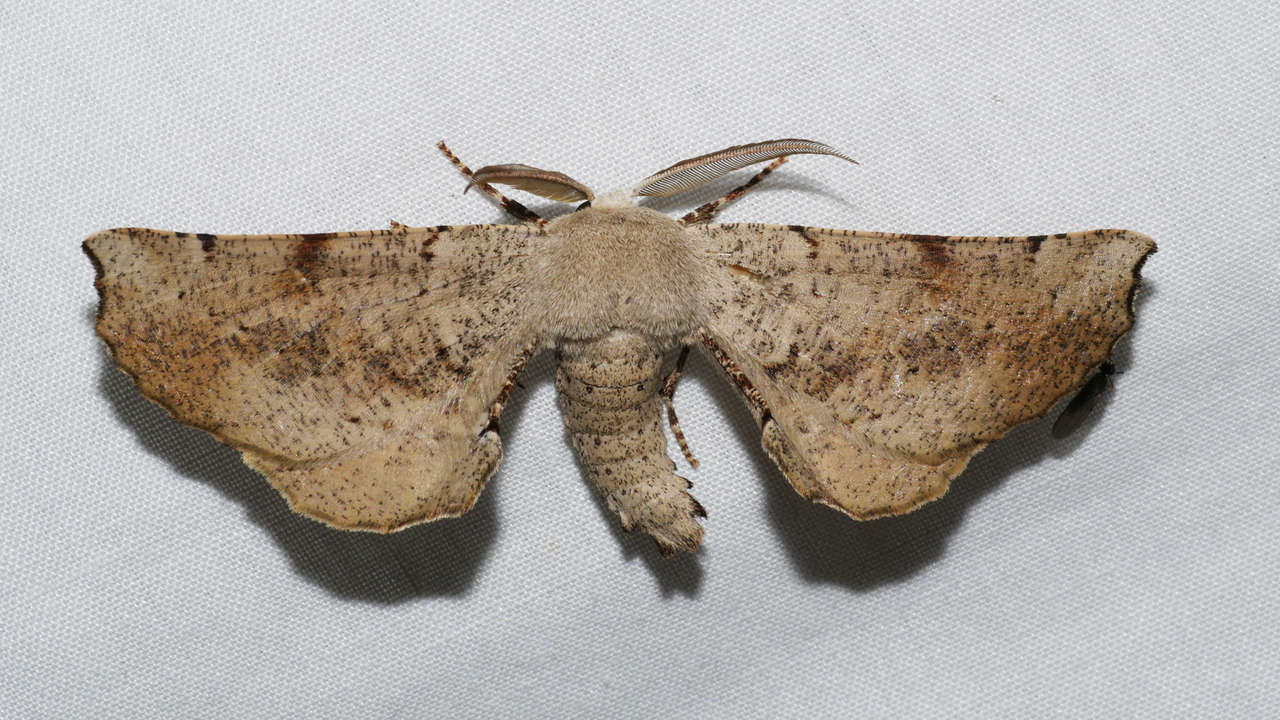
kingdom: Animalia
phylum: Arthropoda
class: Insecta
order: Lepidoptera
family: Geometridae
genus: Circopetes
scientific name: Circopetes obtusata
